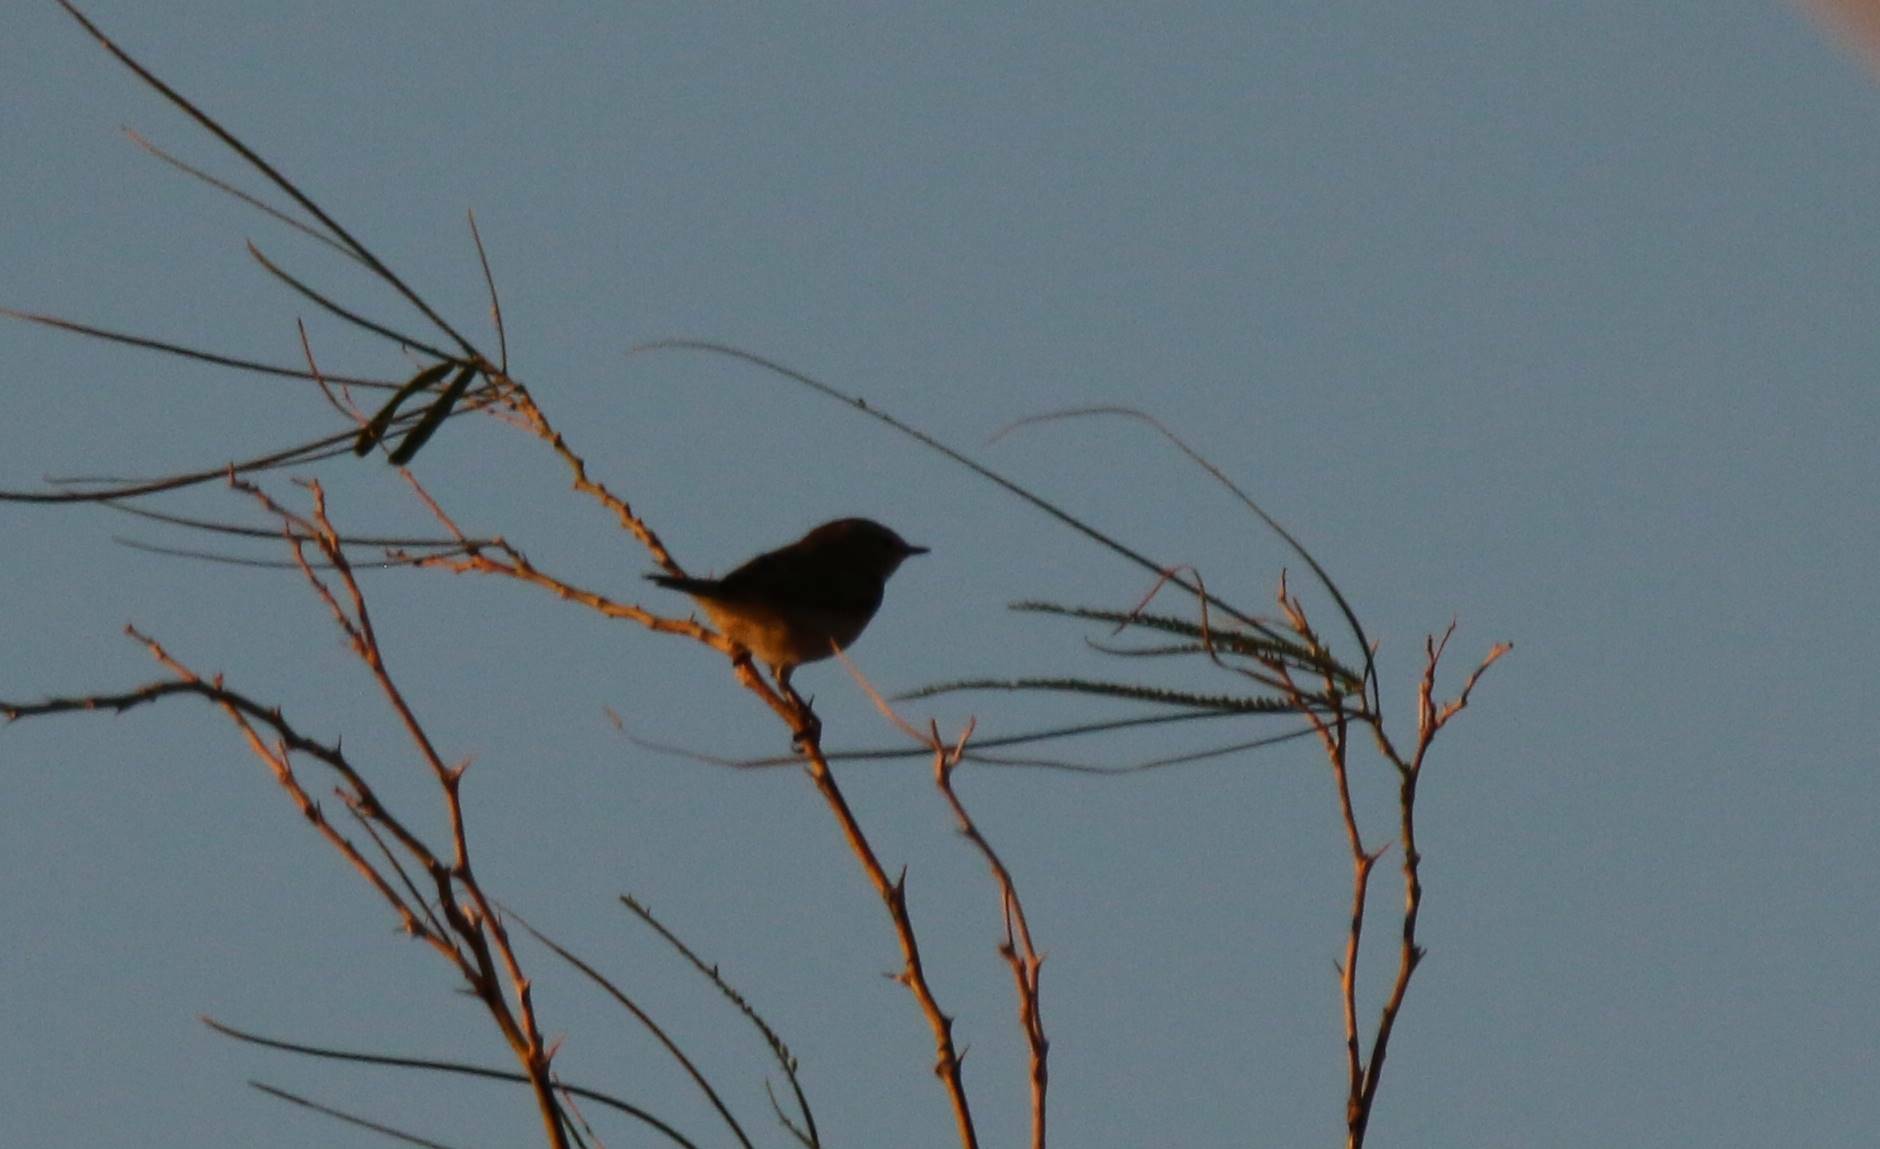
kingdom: Animalia
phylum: Chordata
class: Aves
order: Passeriformes
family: Phylloscopidae
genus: Phylloscopus
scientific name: Phylloscopus collybita
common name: Common chiffchaff
